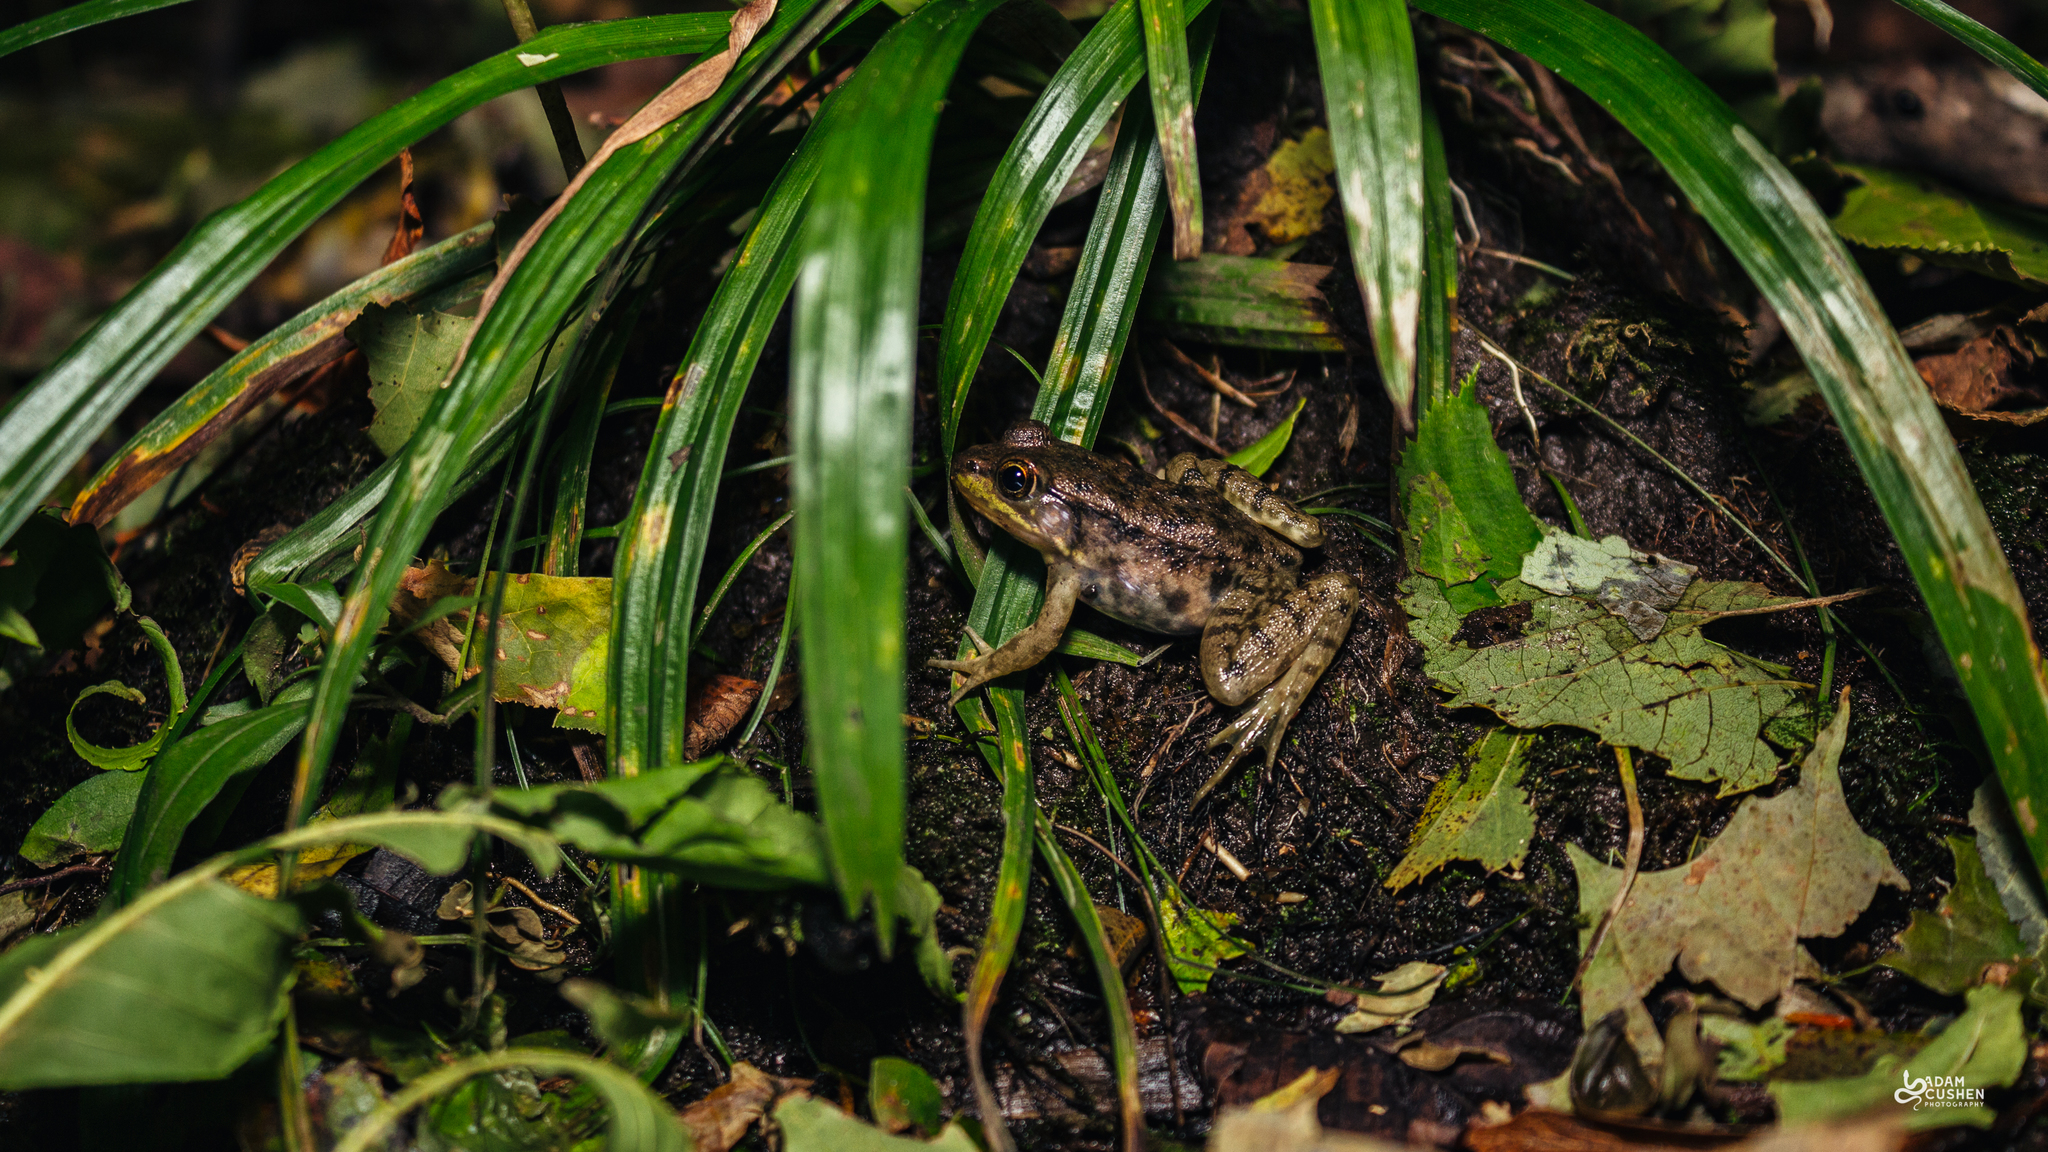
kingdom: Animalia
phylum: Chordata
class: Amphibia
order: Anura
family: Ranidae
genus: Lithobates
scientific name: Lithobates clamitans
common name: Green frog
